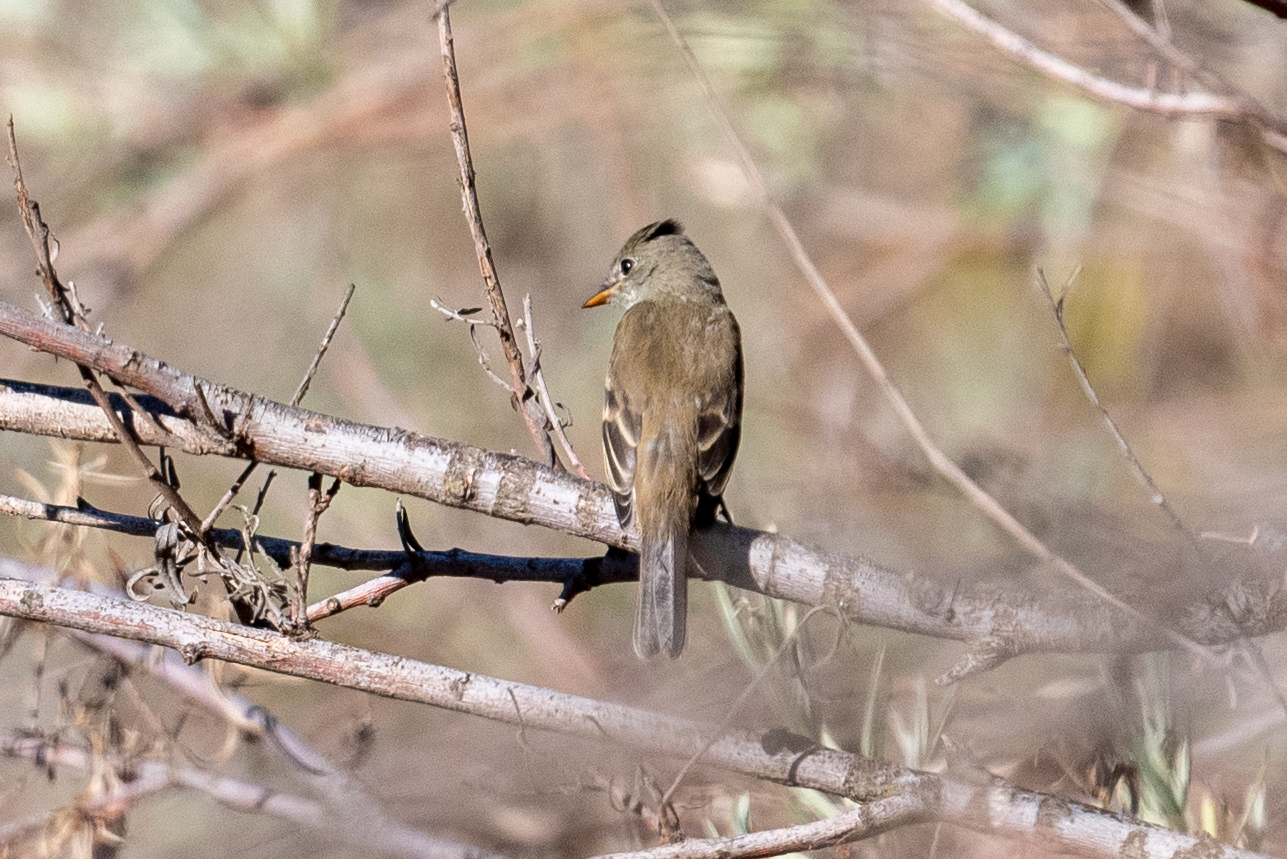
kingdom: Animalia
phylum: Chordata
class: Aves
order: Passeriformes
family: Tyrannidae
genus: Empidonax
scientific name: Empidonax traillii
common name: Willow flycatcher
